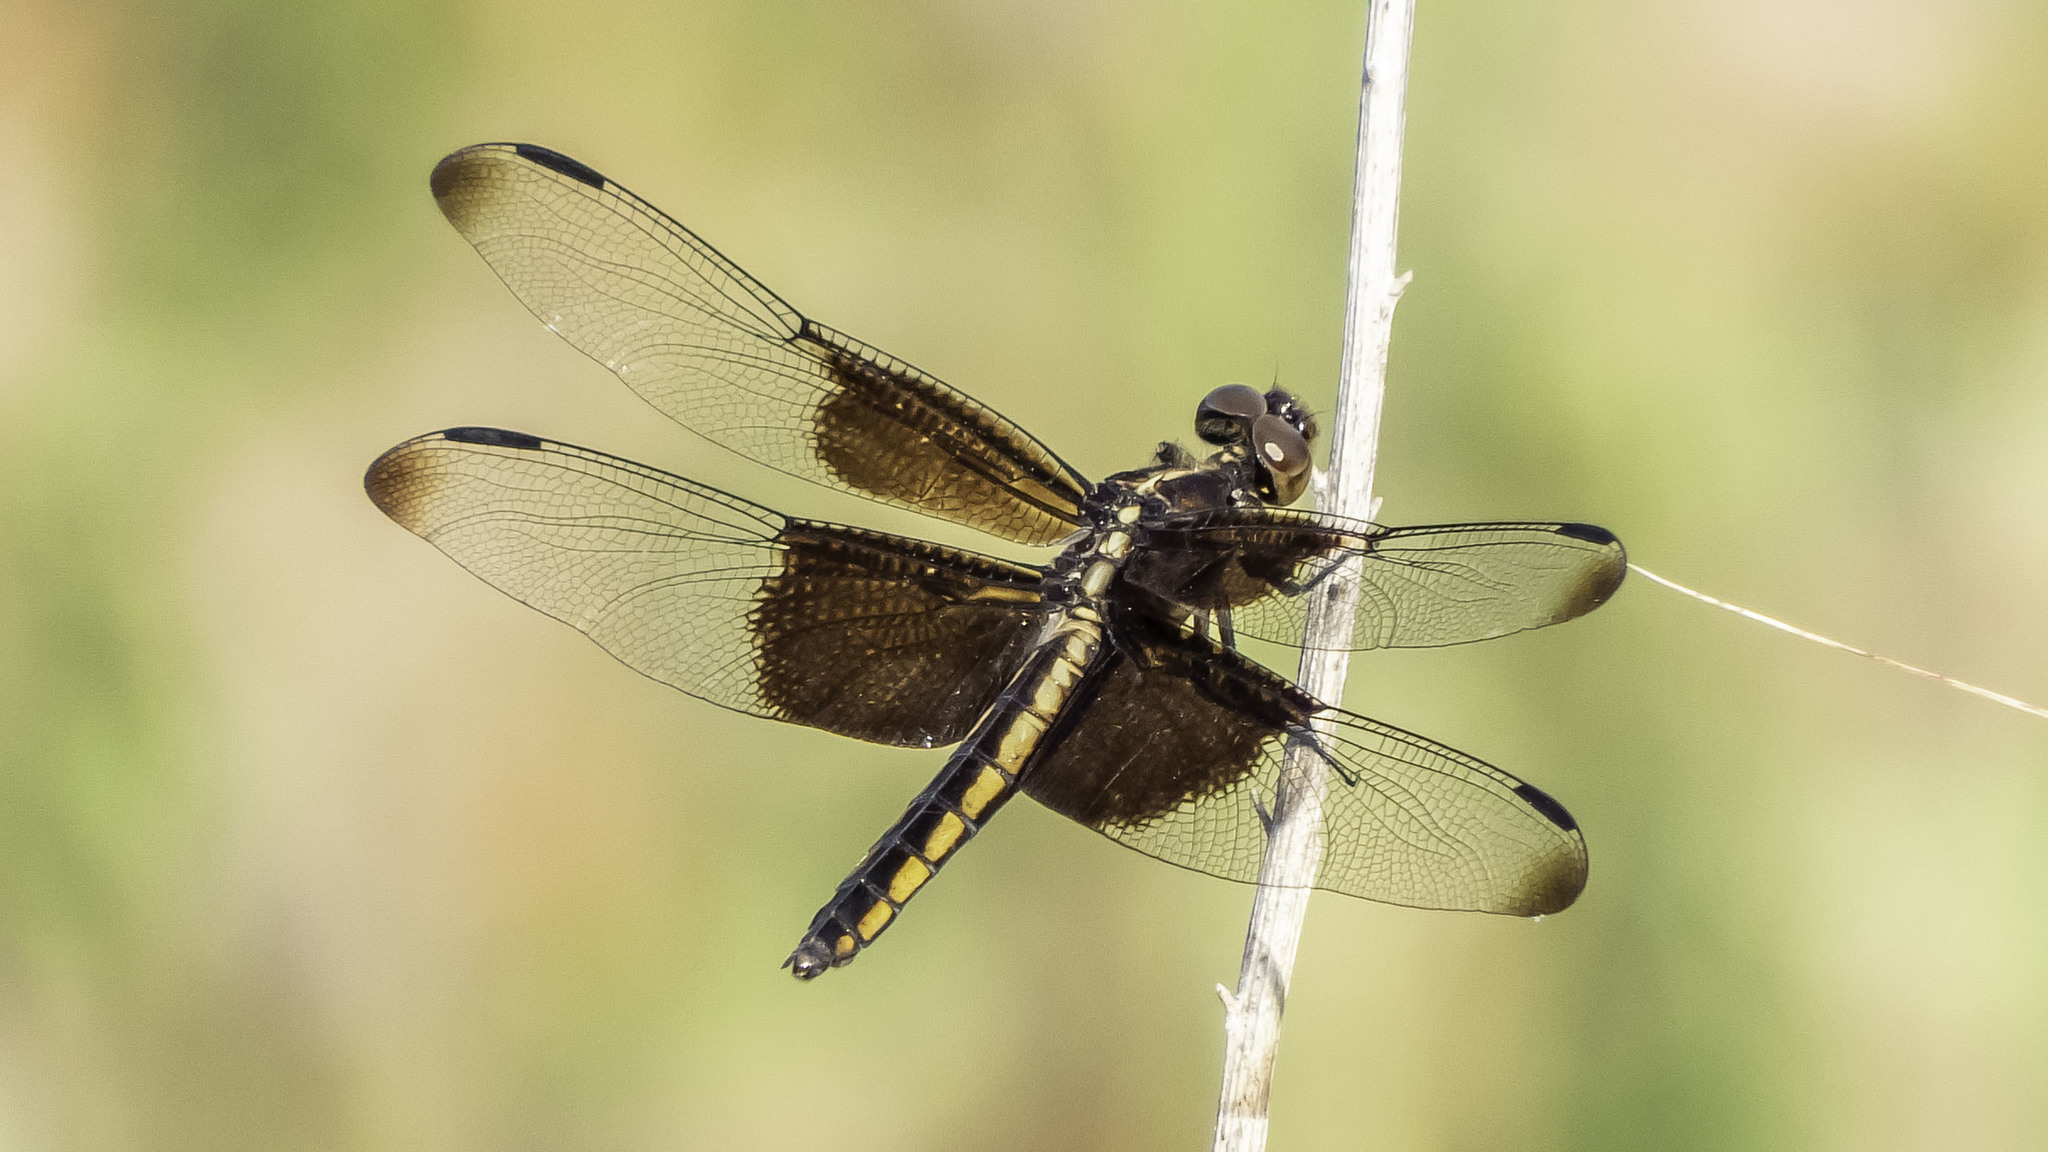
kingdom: Animalia
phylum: Arthropoda
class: Insecta
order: Odonata
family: Libellulidae
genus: Libellula
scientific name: Libellula luctuosa
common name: Widow skimmer
